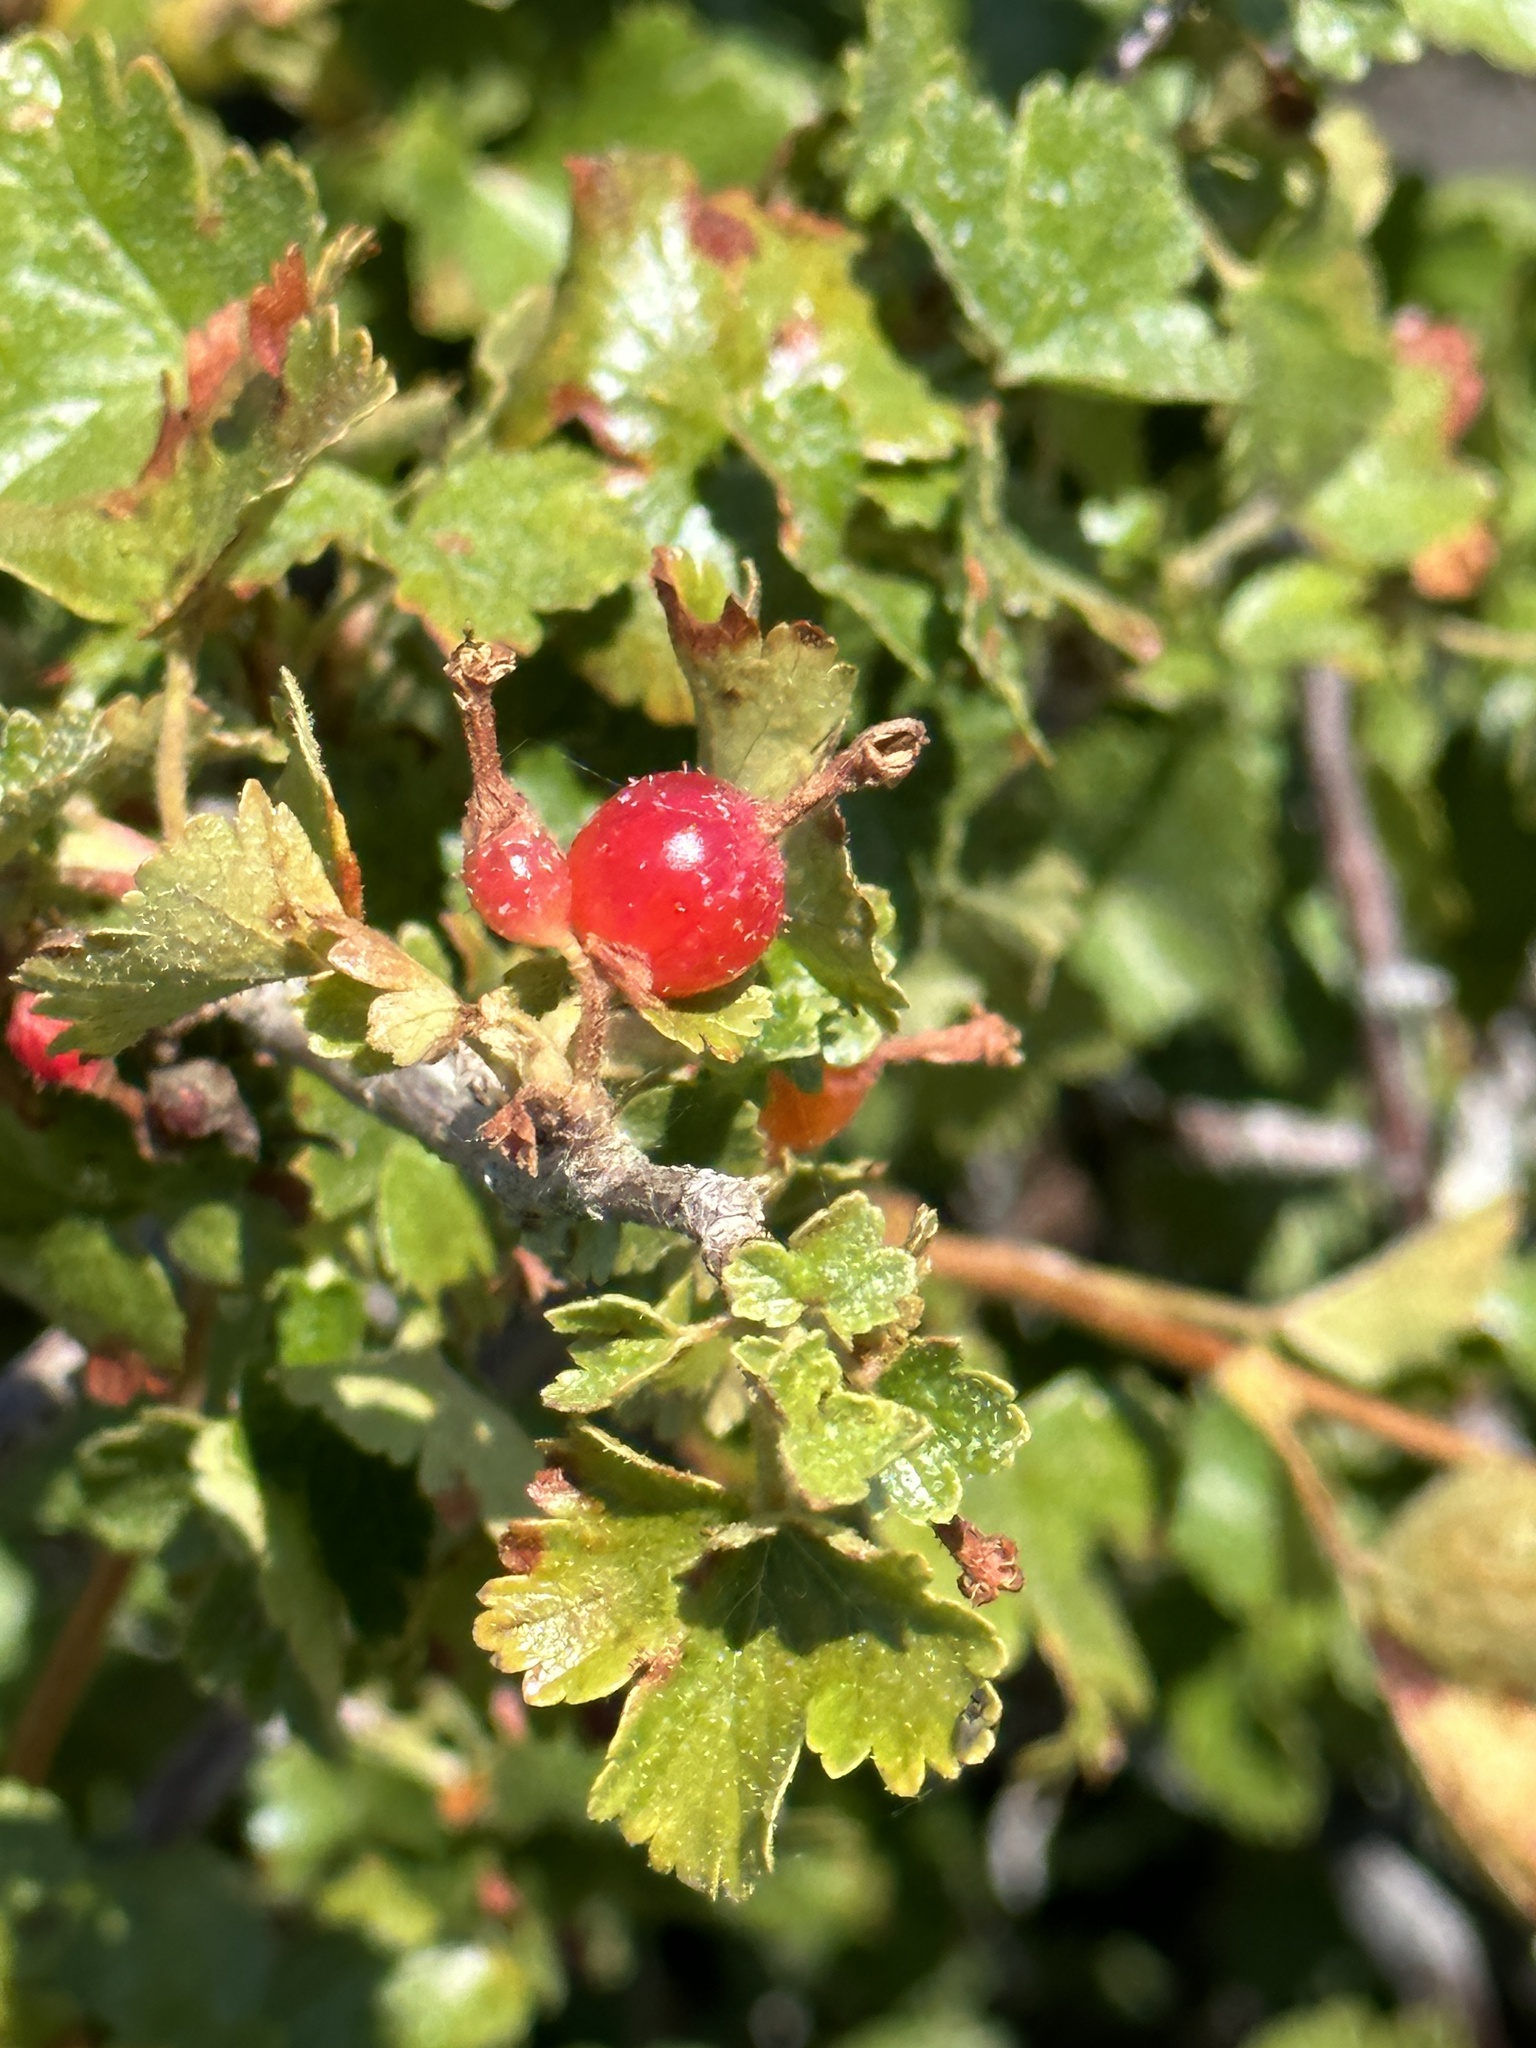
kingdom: Plantae
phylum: Tracheophyta
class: Magnoliopsida
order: Saxifragales
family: Grossulariaceae
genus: Ribes
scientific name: Ribes cereum
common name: Wax currant
